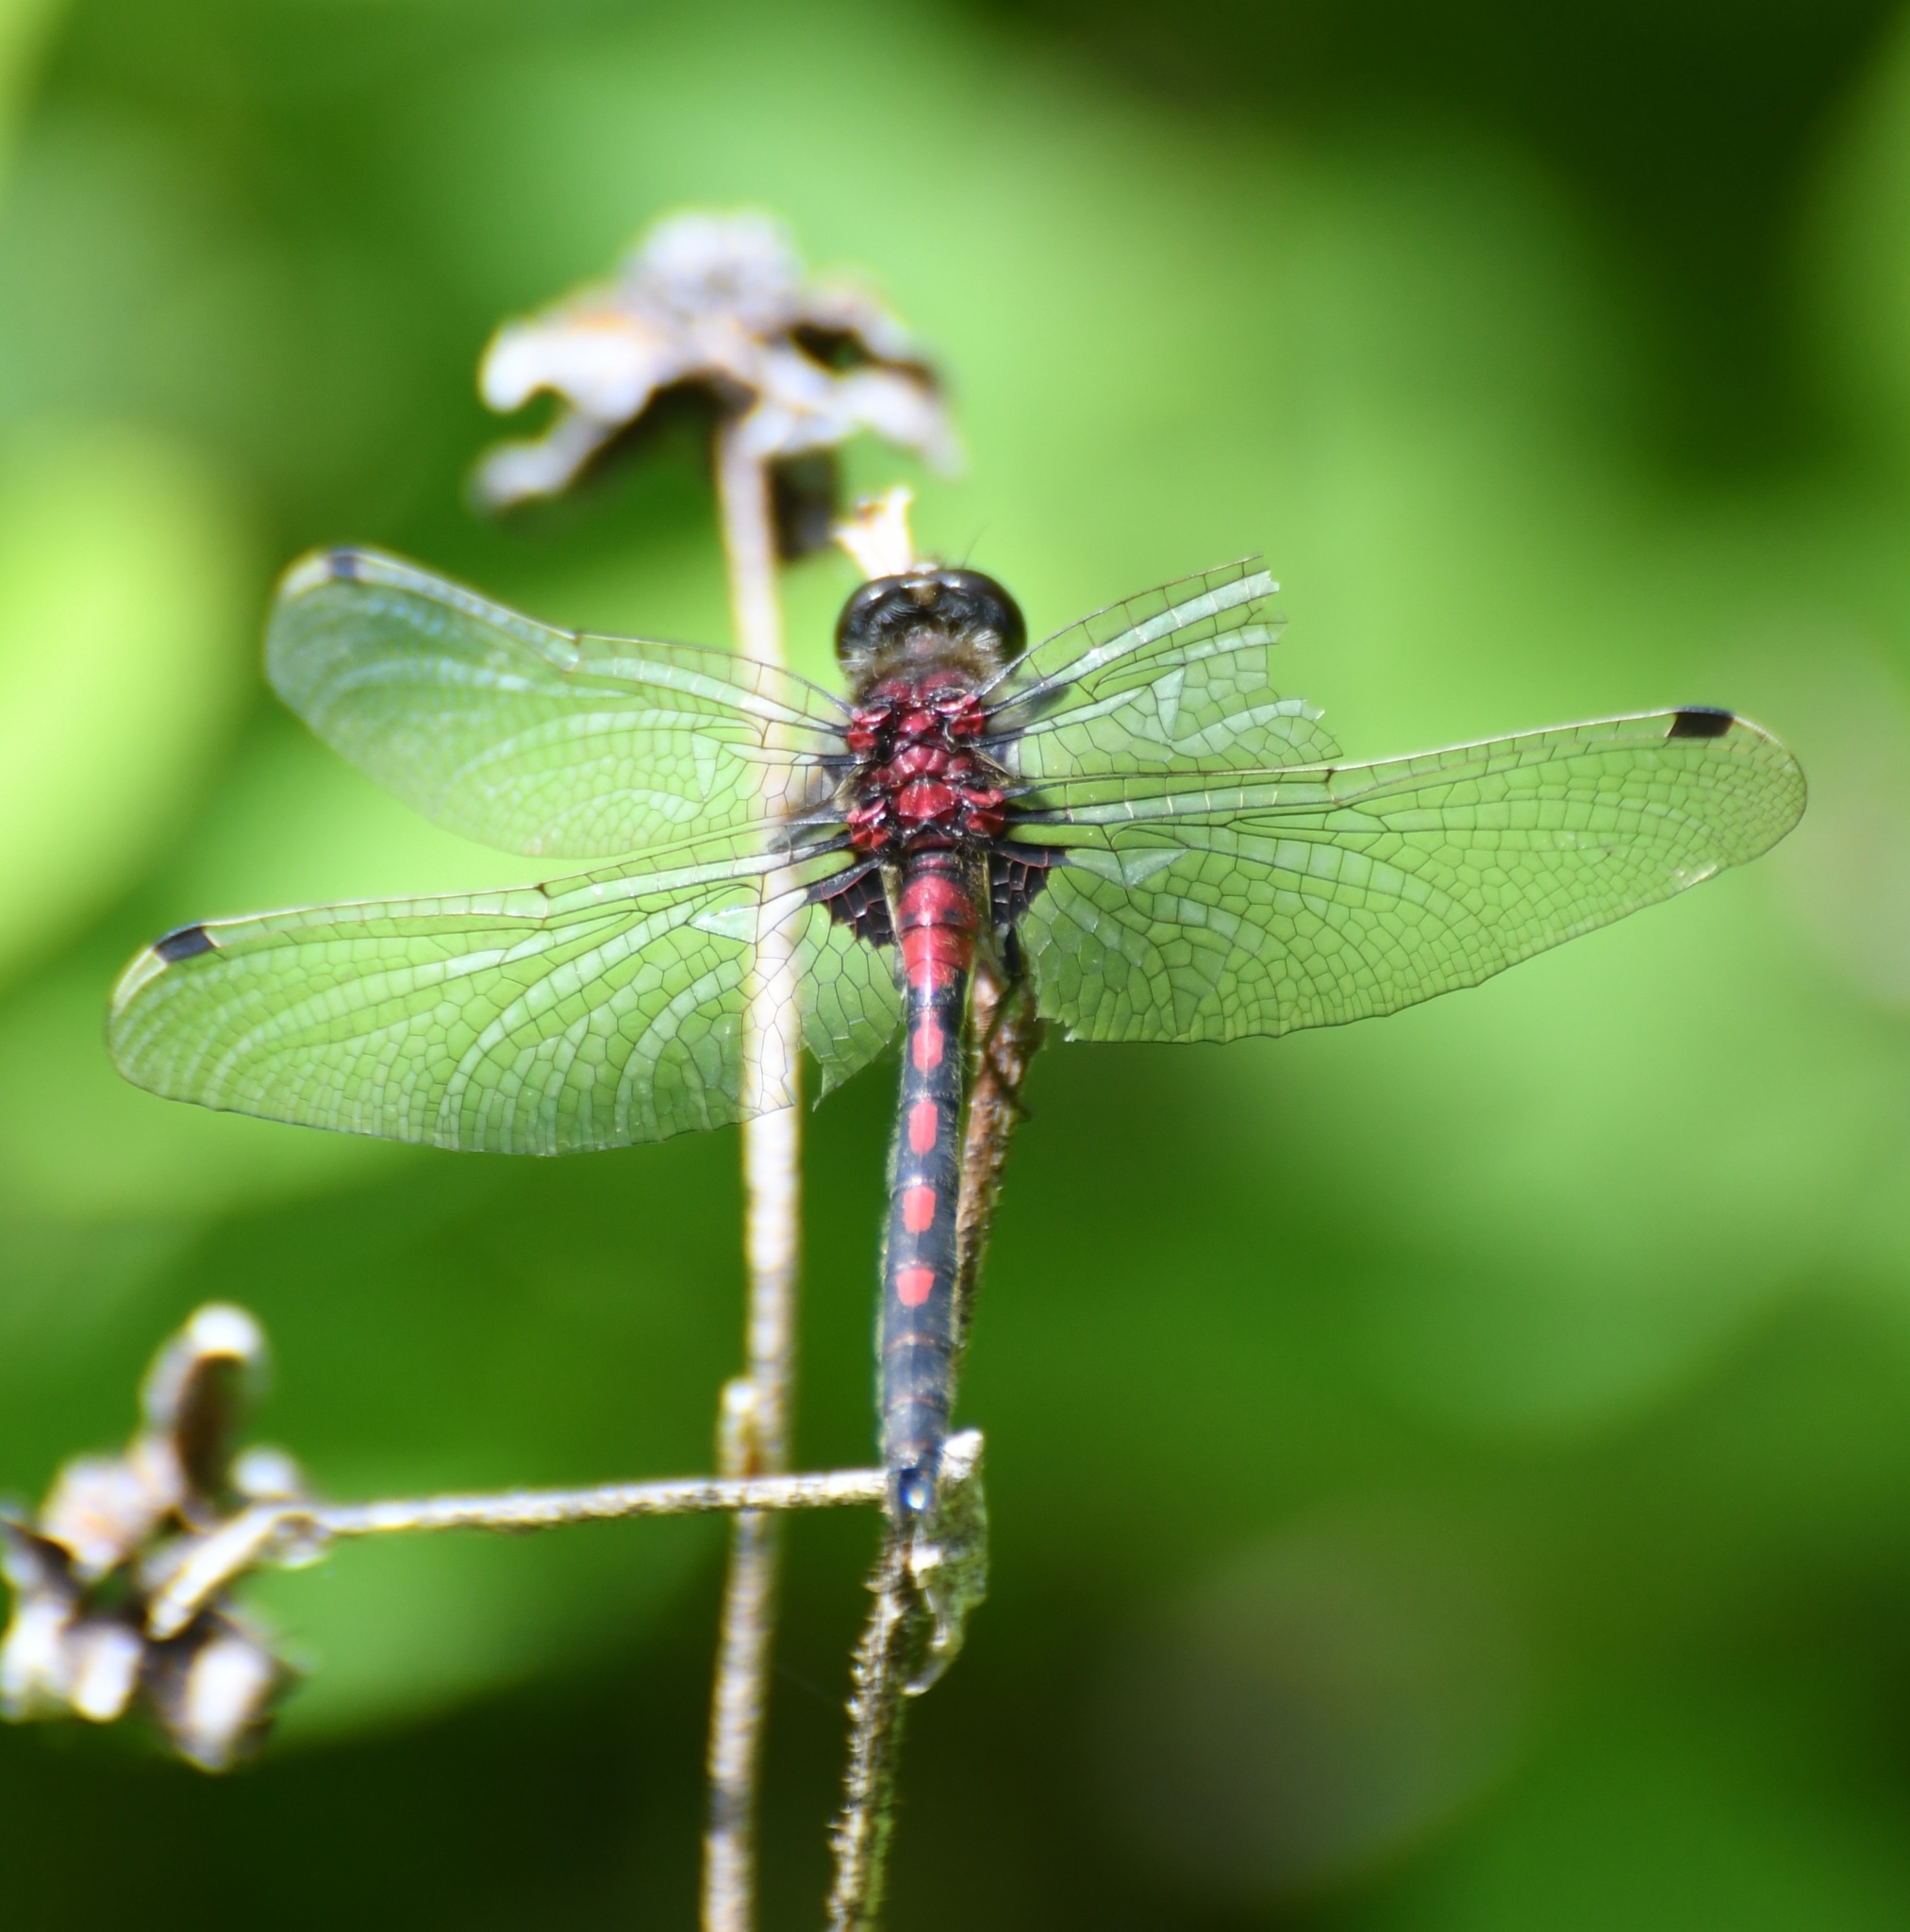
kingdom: Animalia
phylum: Arthropoda
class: Insecta
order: Odonata
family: Libellulidae
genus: Leucorrhinia
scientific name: Leucorrhinia hudsonica
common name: Hudsonian whiteface
